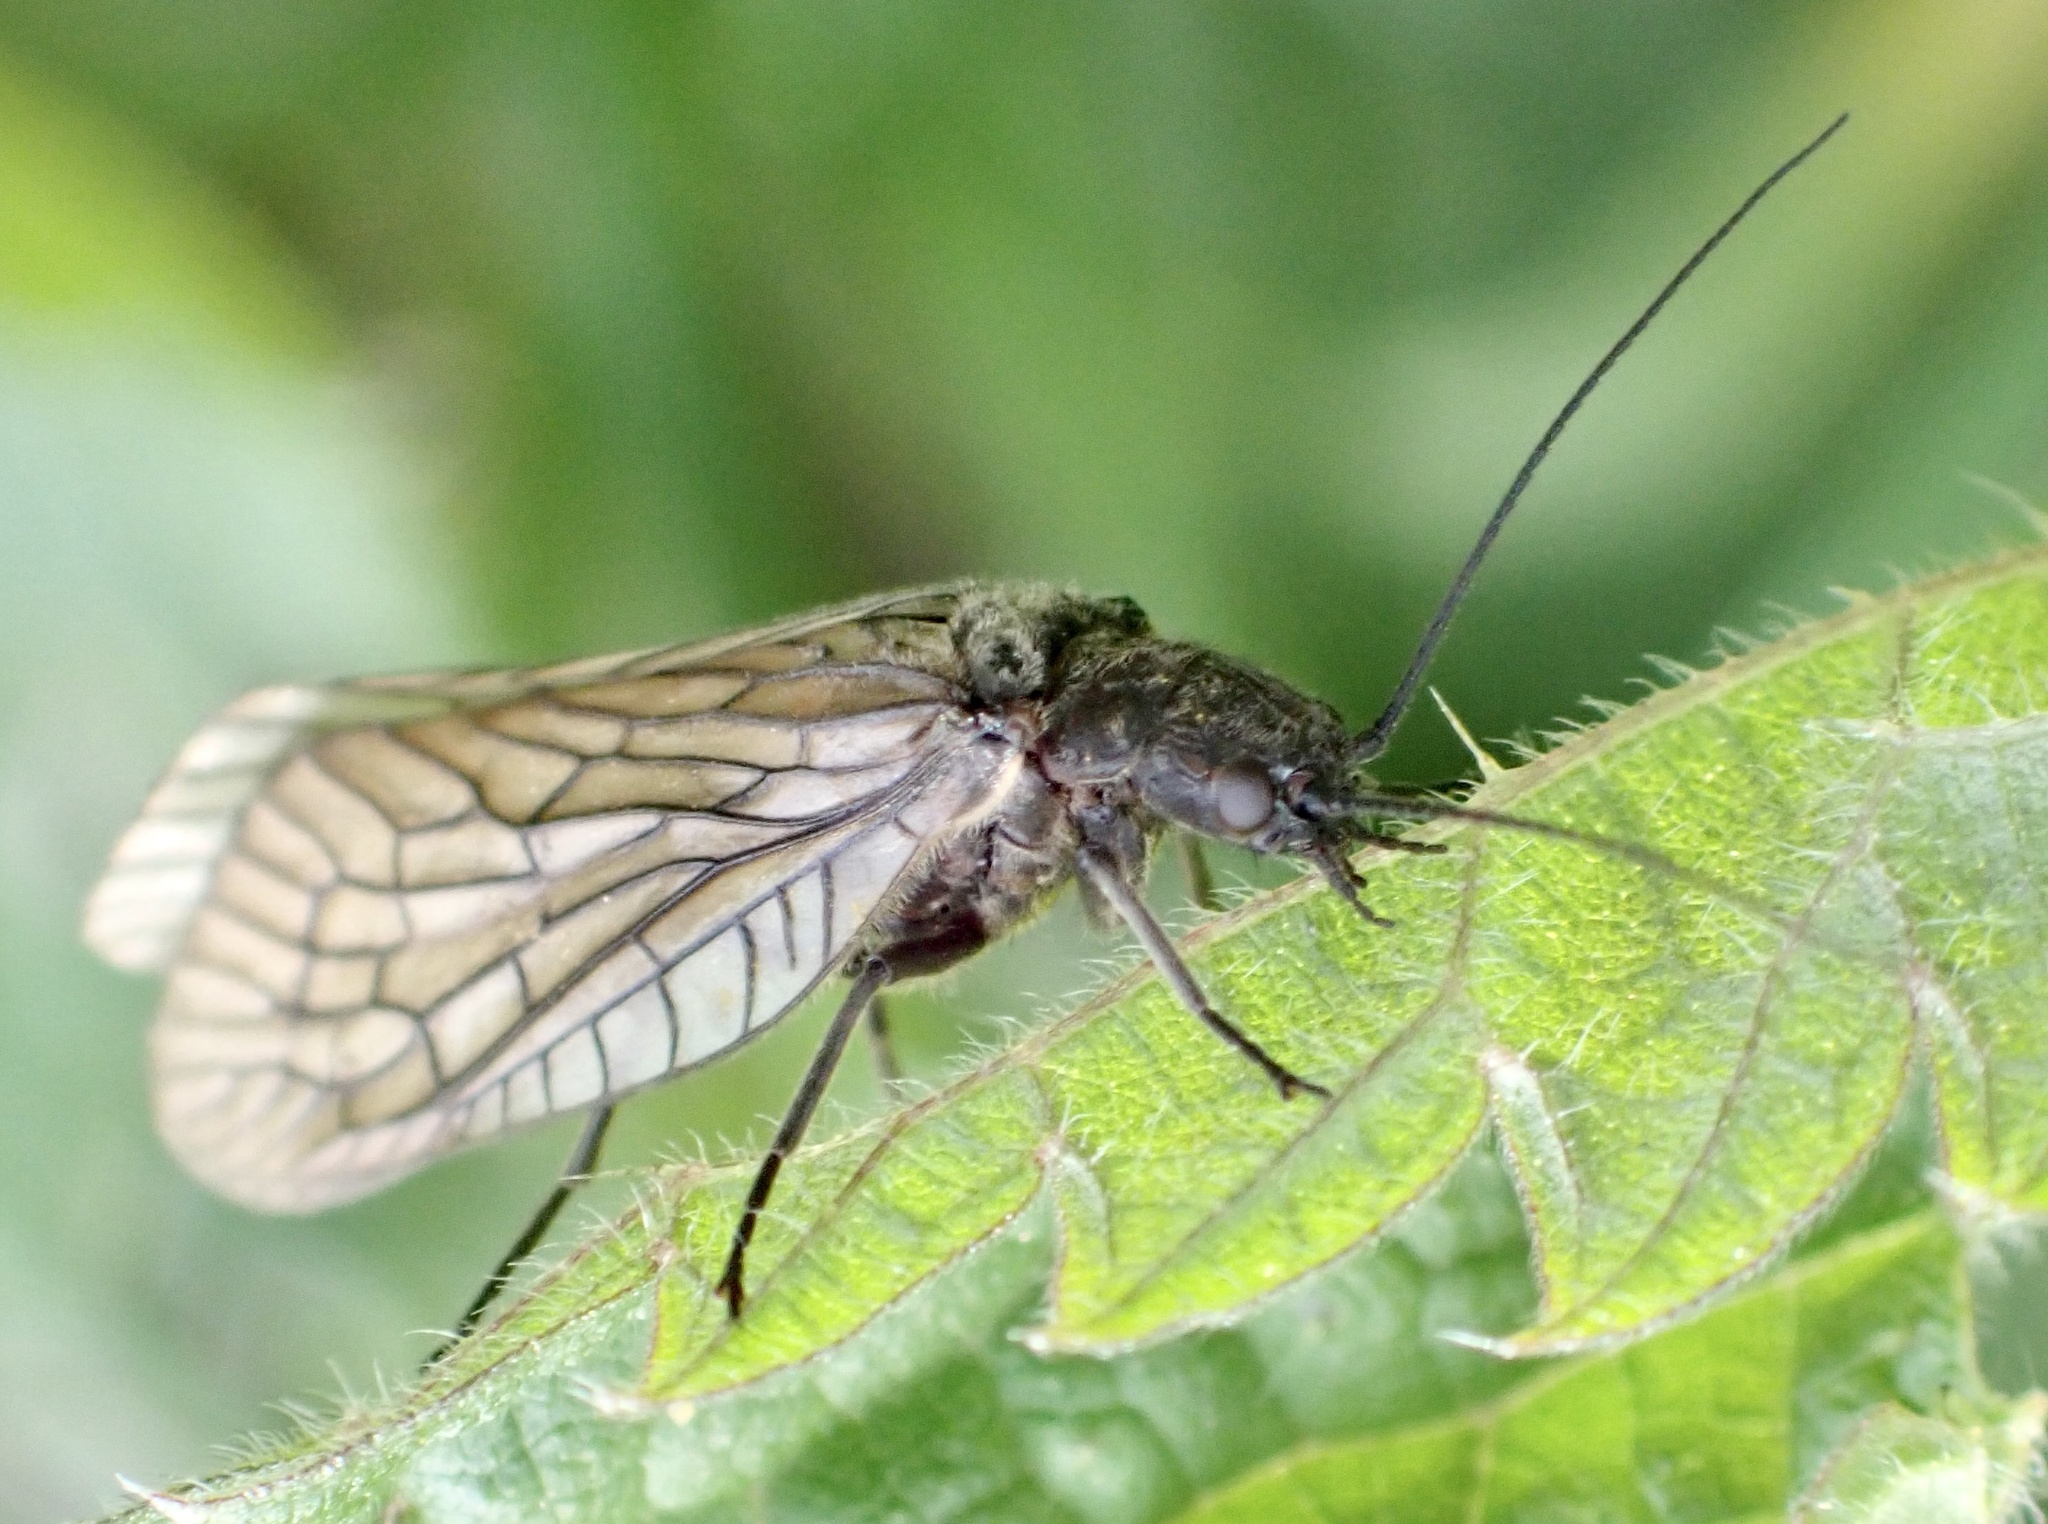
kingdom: Animalia
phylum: Arthropoda
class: Insecta
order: Megaloptera
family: Sialidae
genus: Sialis
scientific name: Sialis
